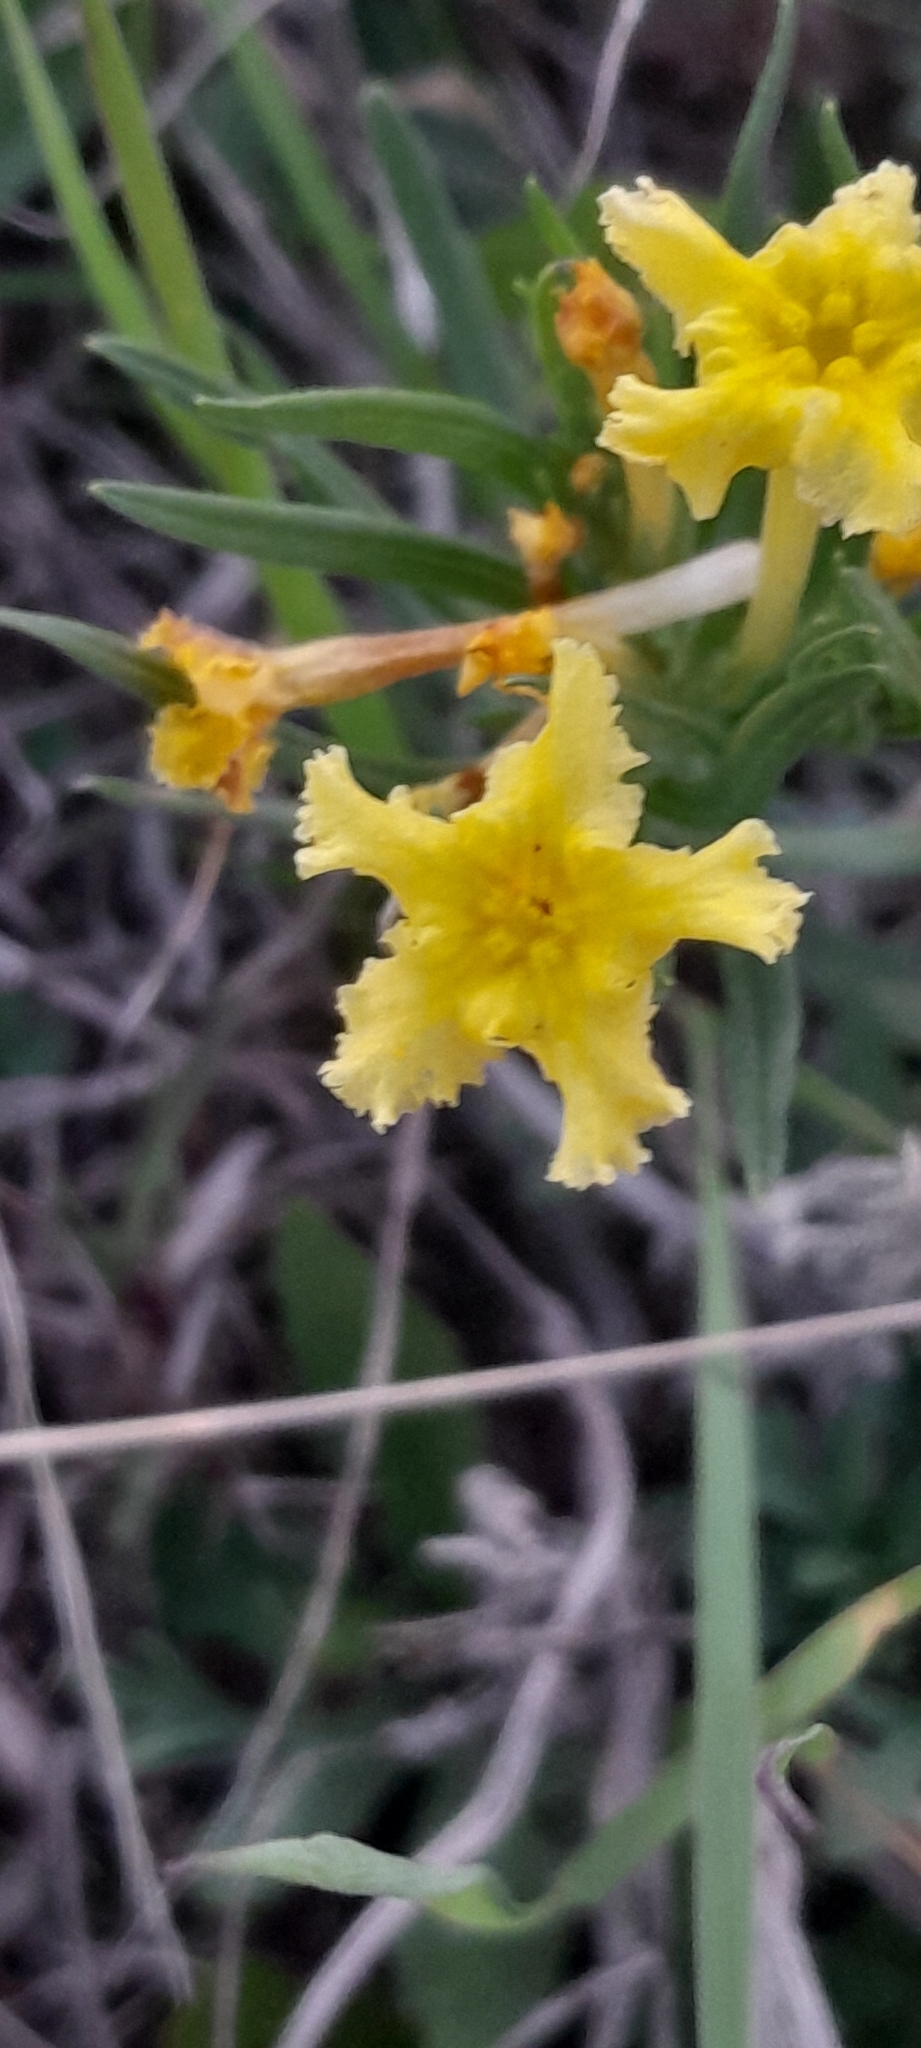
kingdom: Plantae
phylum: Tracheophyta
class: Magnoliopsida
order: Boraginales
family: Boraginaceae
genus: Lithospermum
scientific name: Lithospermum incisum
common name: Fringed gromwell
